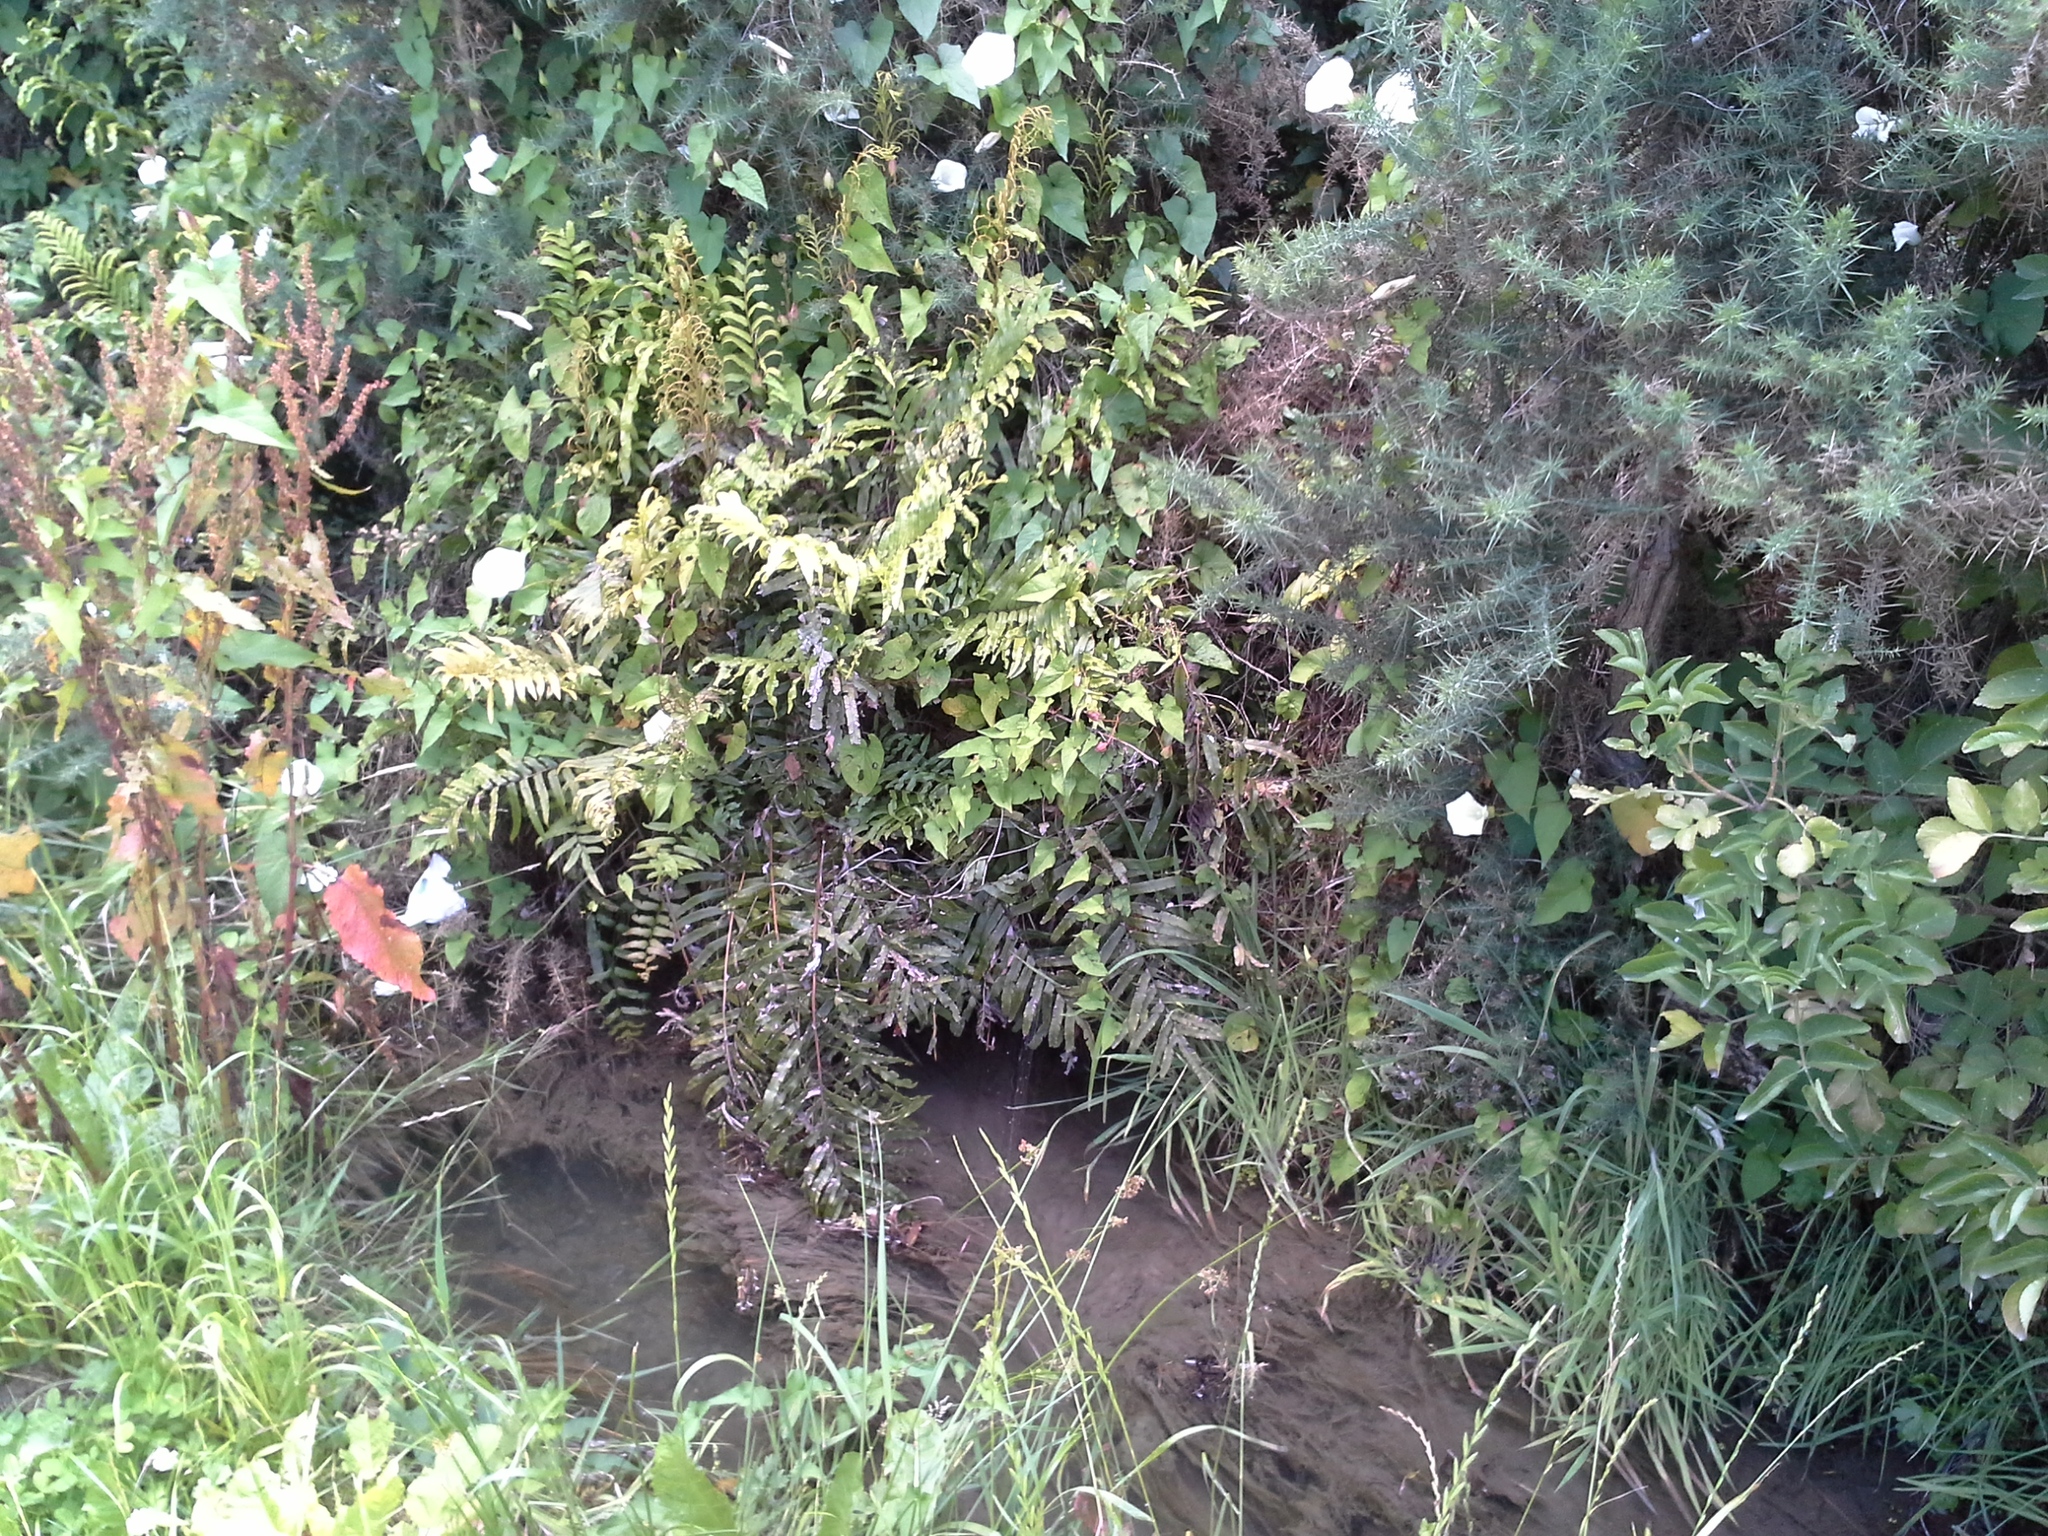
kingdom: Plantae
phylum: Tracheophyta
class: Polypodiopsida
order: Polypodiales
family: Blechnaceae
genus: Parablechnum
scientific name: Parablechnum minus
